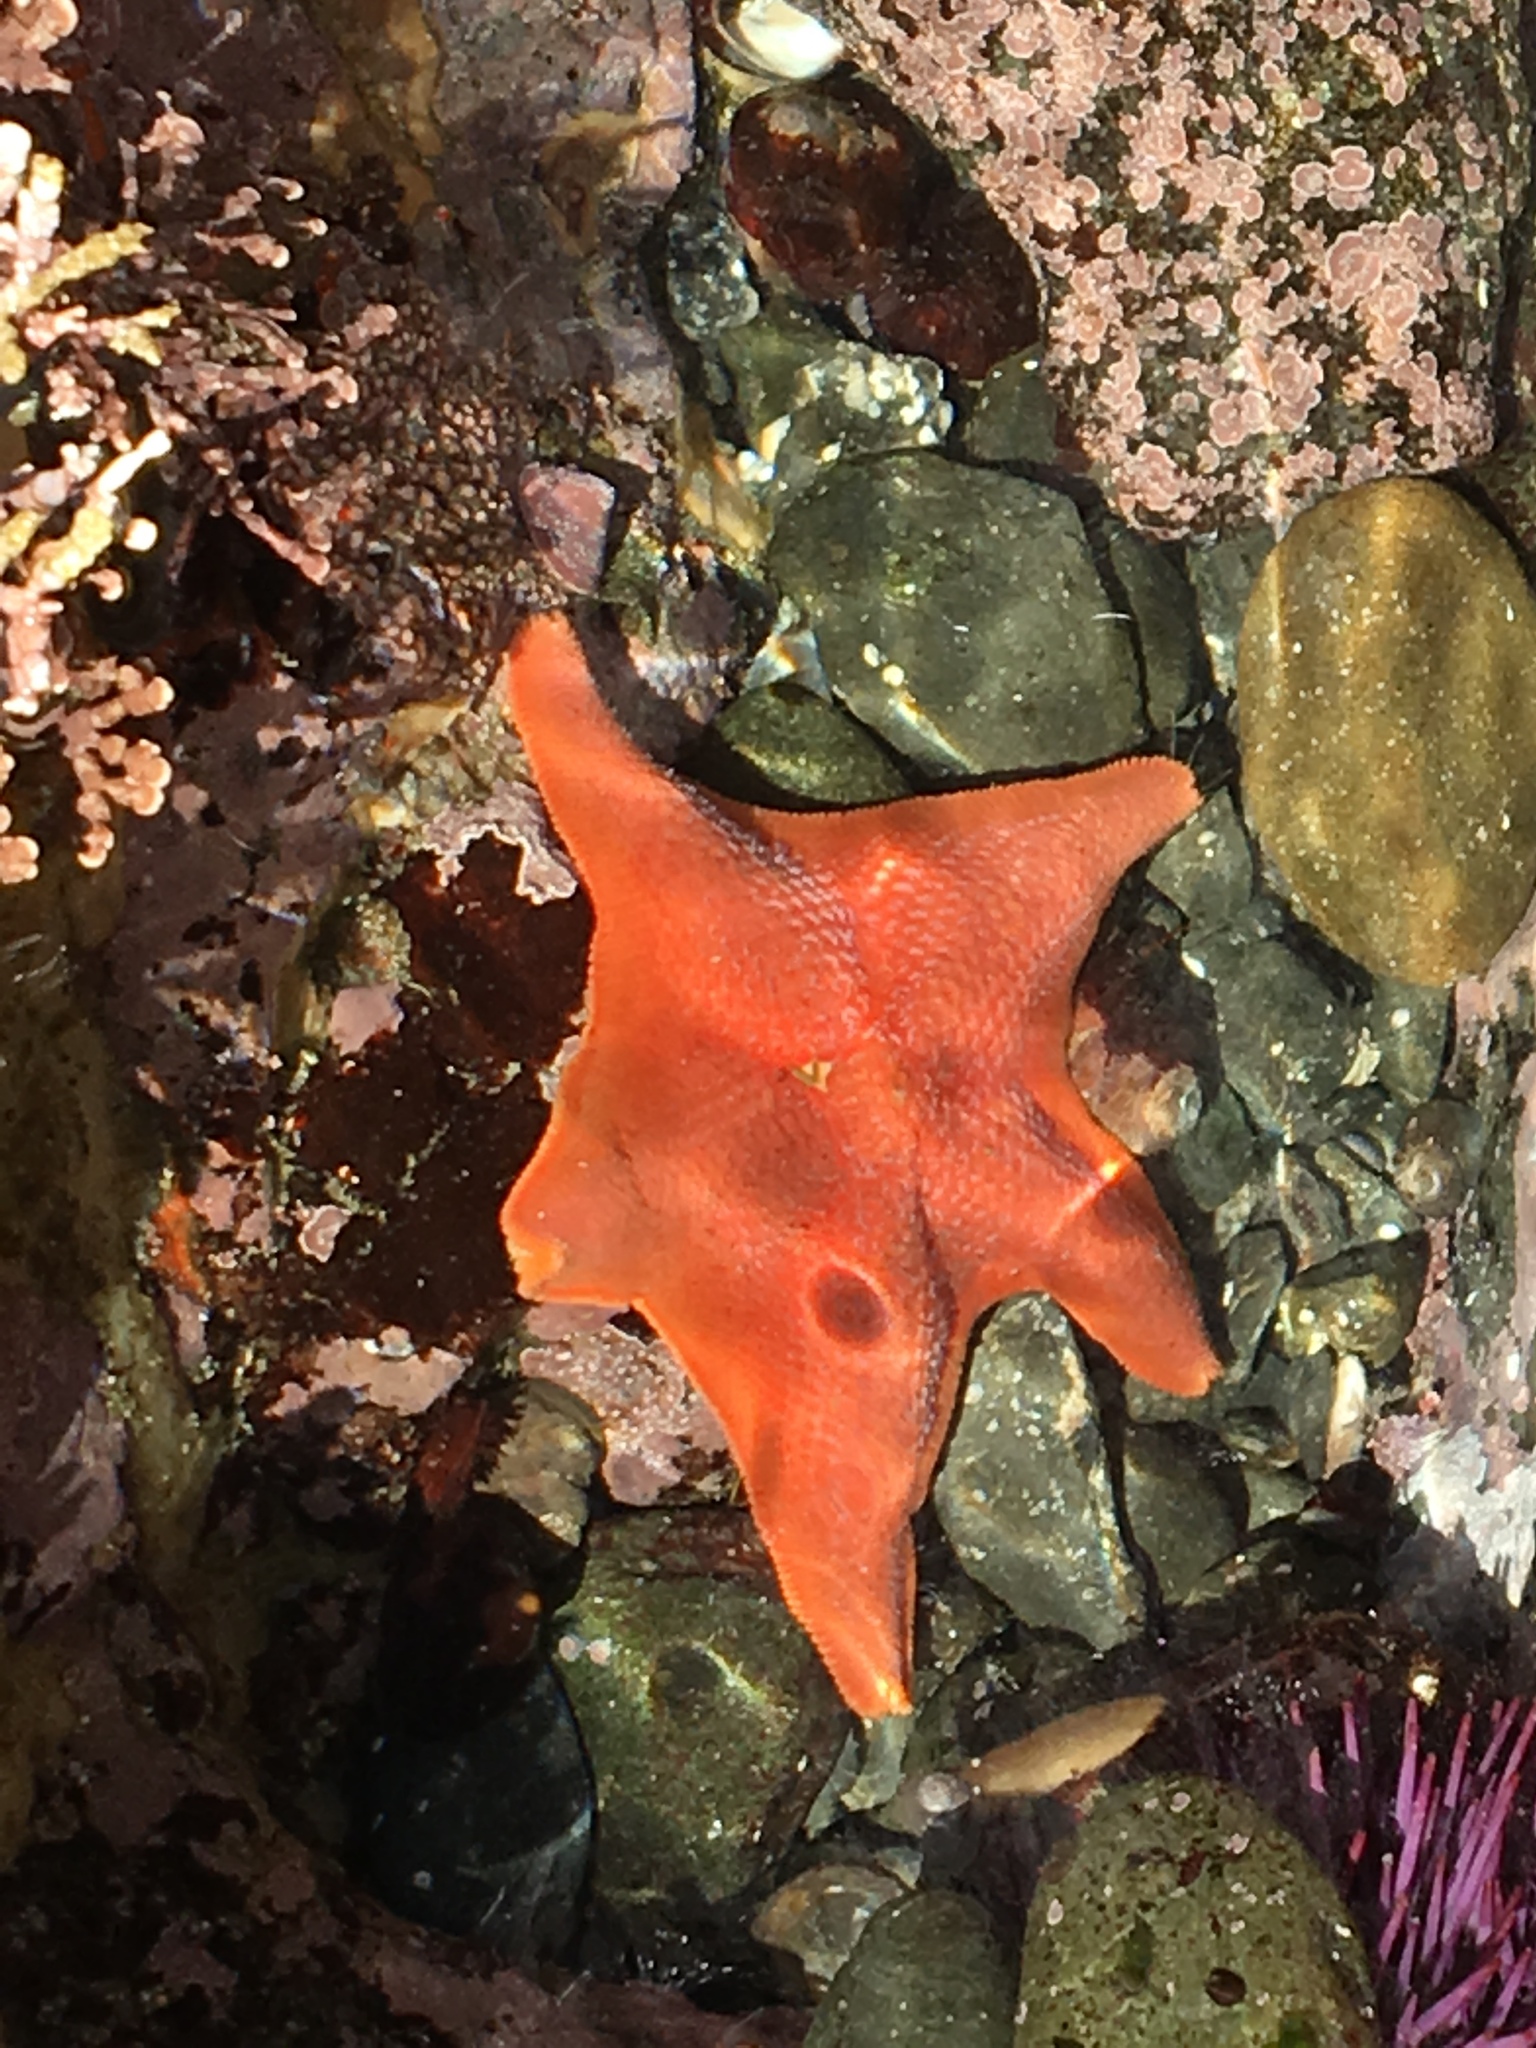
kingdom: Animalia
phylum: Echinodermata
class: Asteroidea
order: Valvatida
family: Asterinidae
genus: Patiria
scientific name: Patiria miniata
